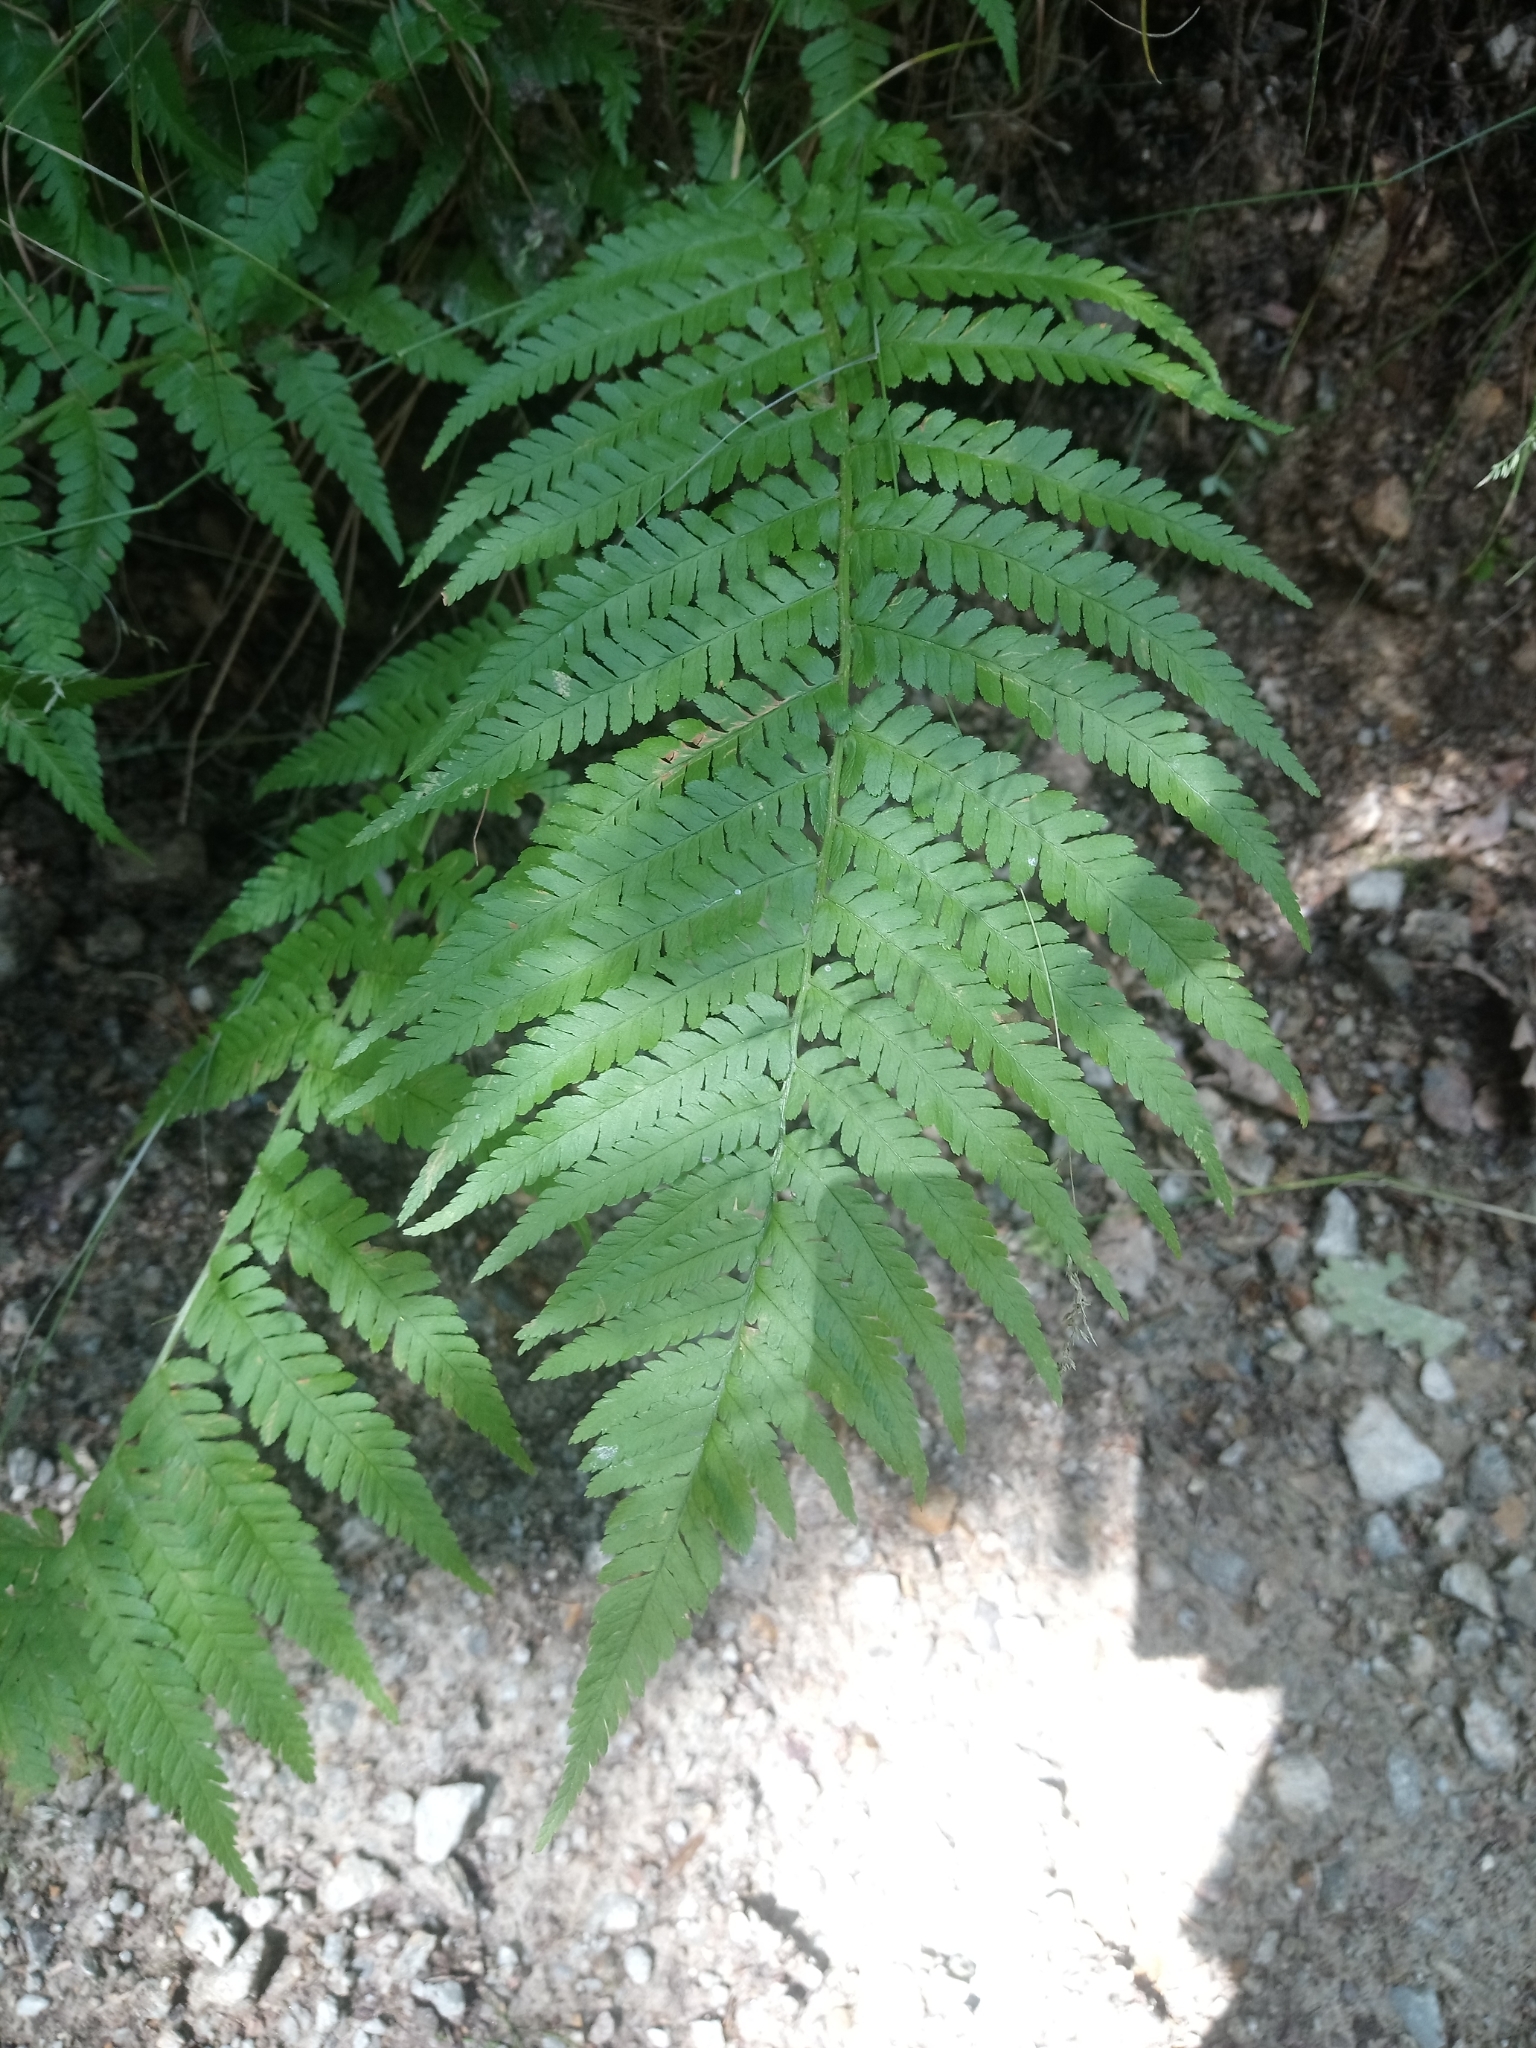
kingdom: Plantae
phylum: Tracheophyta
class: Polypodiopsida
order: Polypodiales
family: Dryopteridaceae
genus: Dryopteris
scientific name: Dryopteris filix-mas
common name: Male fern
